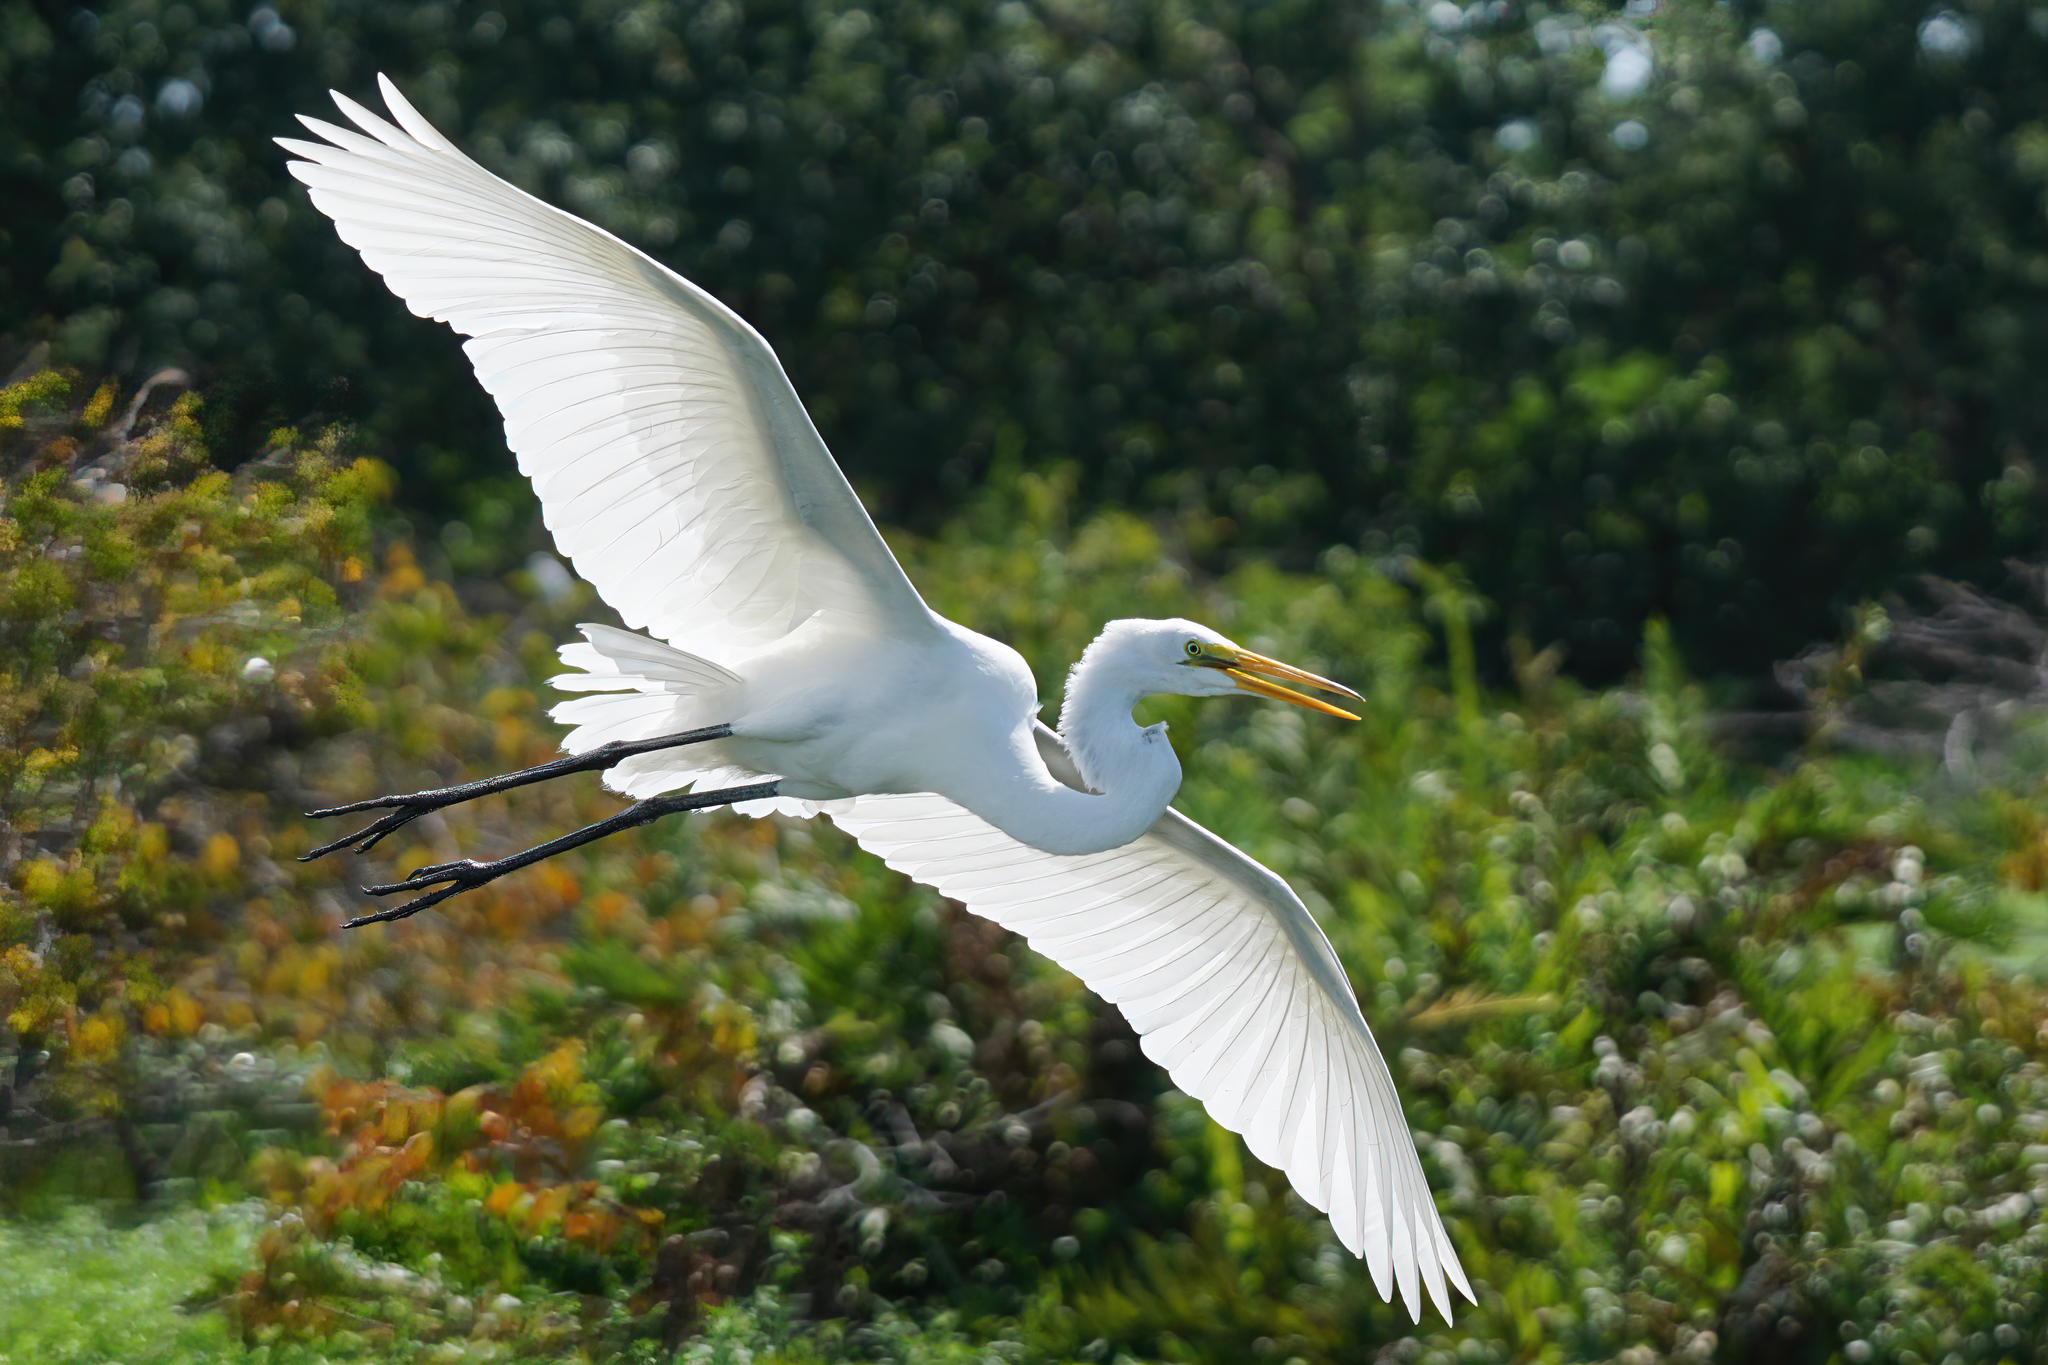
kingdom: Animalia
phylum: Chordata
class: Aves
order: Pelecaniformes
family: Ardeidae
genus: Ardea
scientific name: Ardea alba
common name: Great egret
